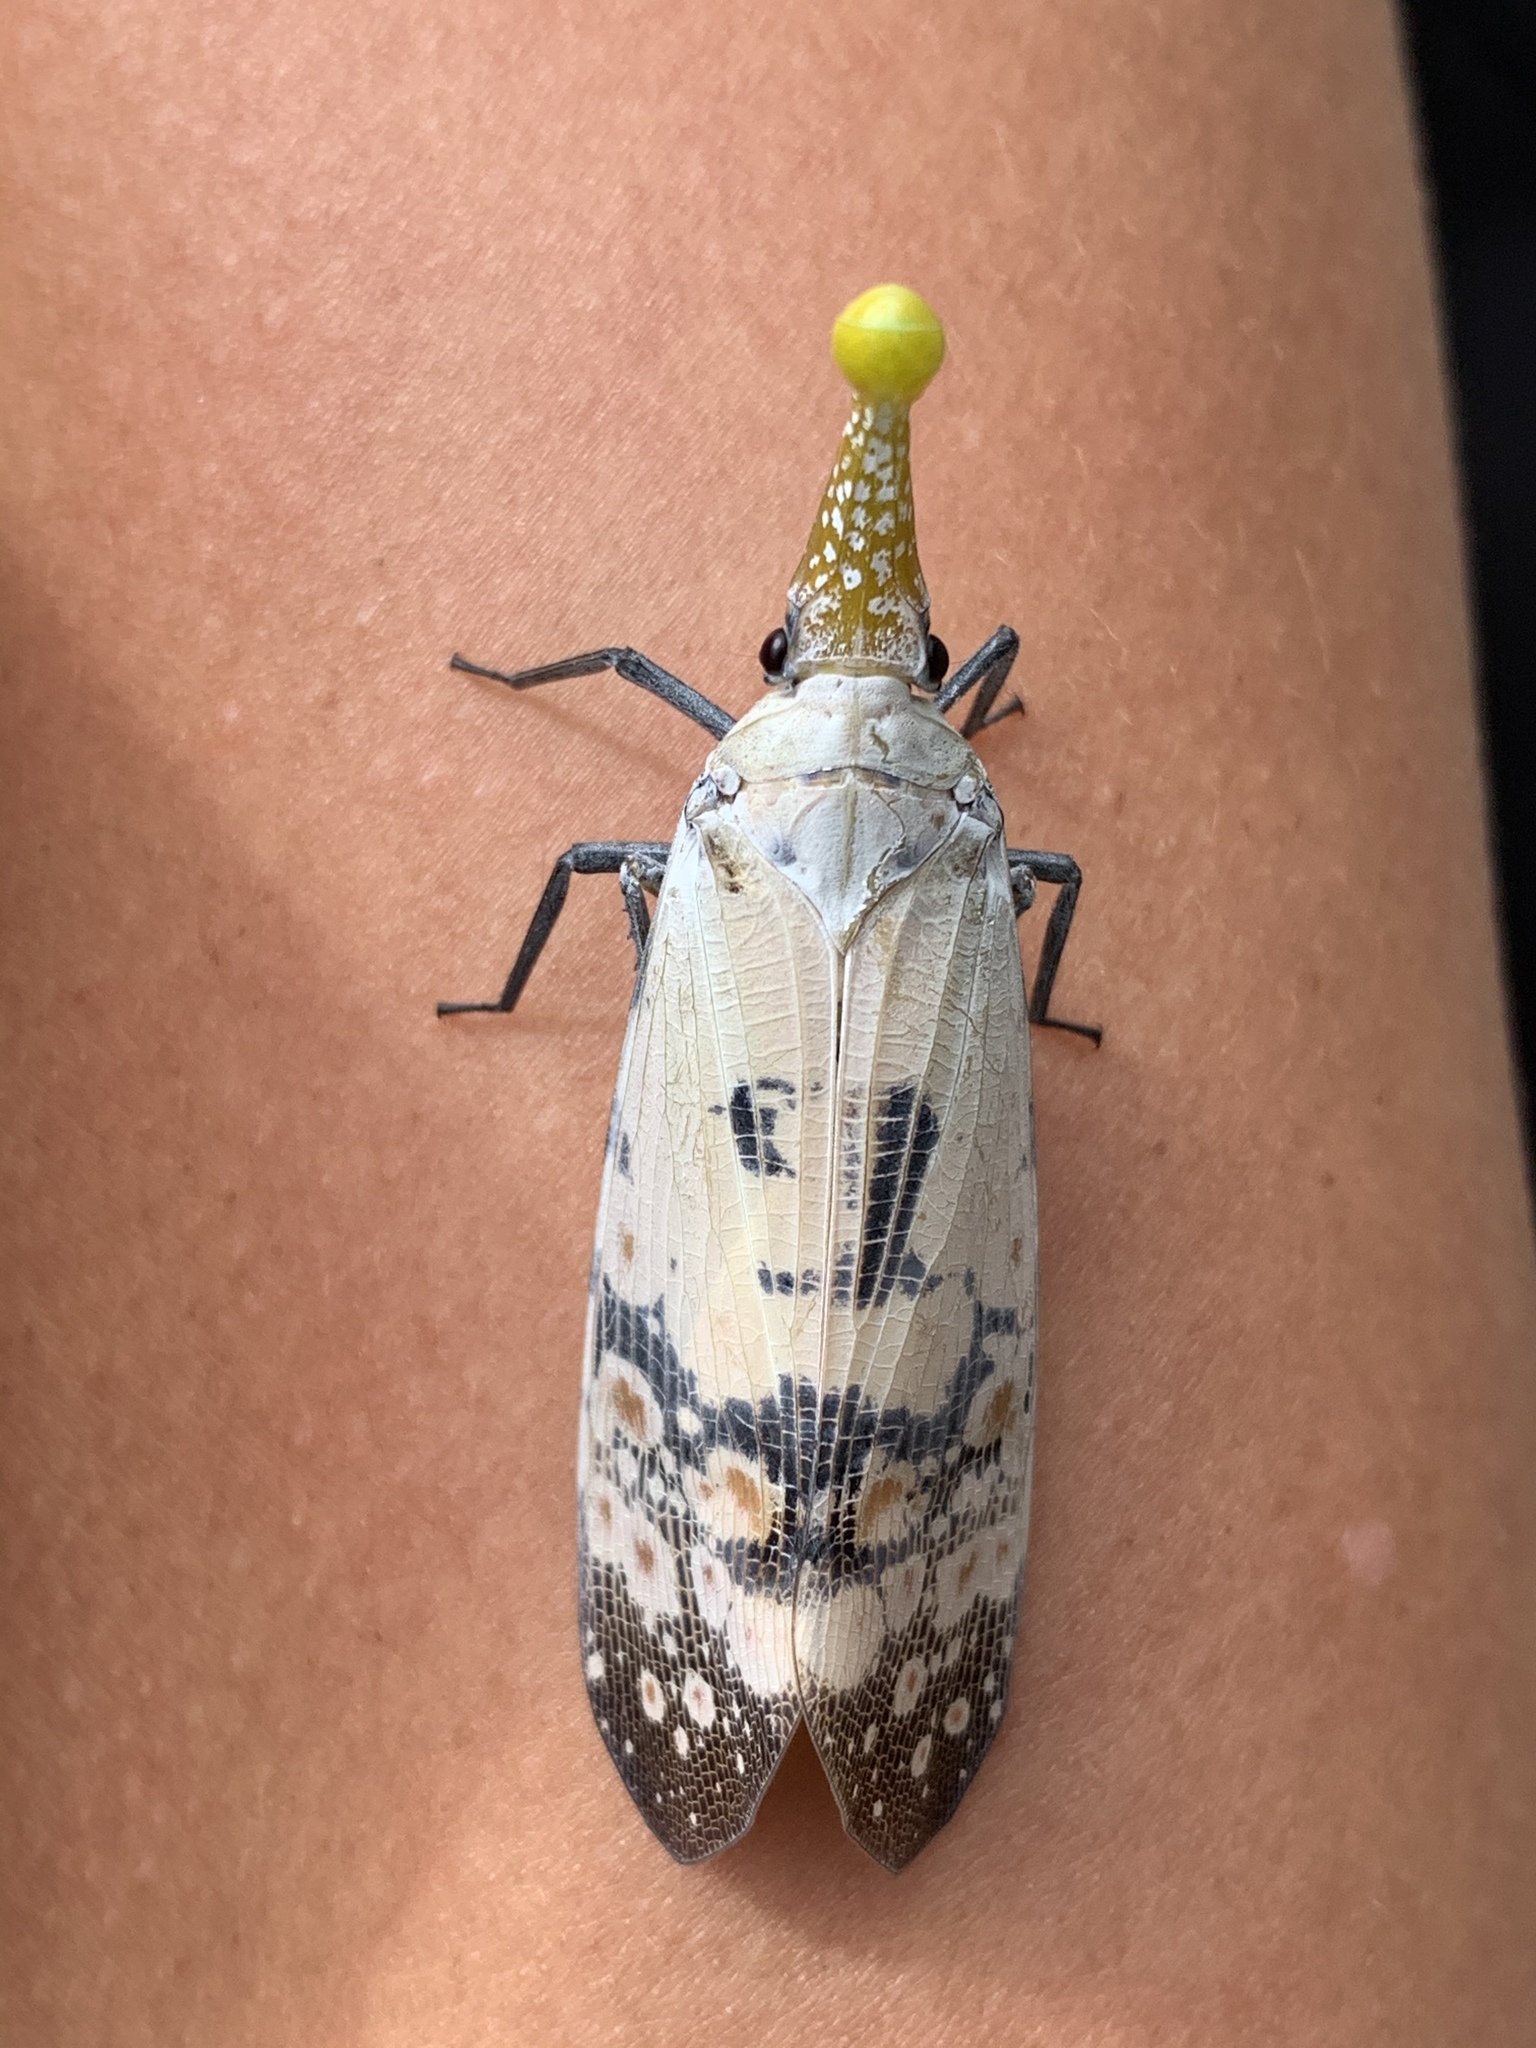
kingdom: Animalia
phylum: Arthropoda
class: Insecta
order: Hemiptera
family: Fulgoridae
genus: Pyrops
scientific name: Pyrops watanabei
